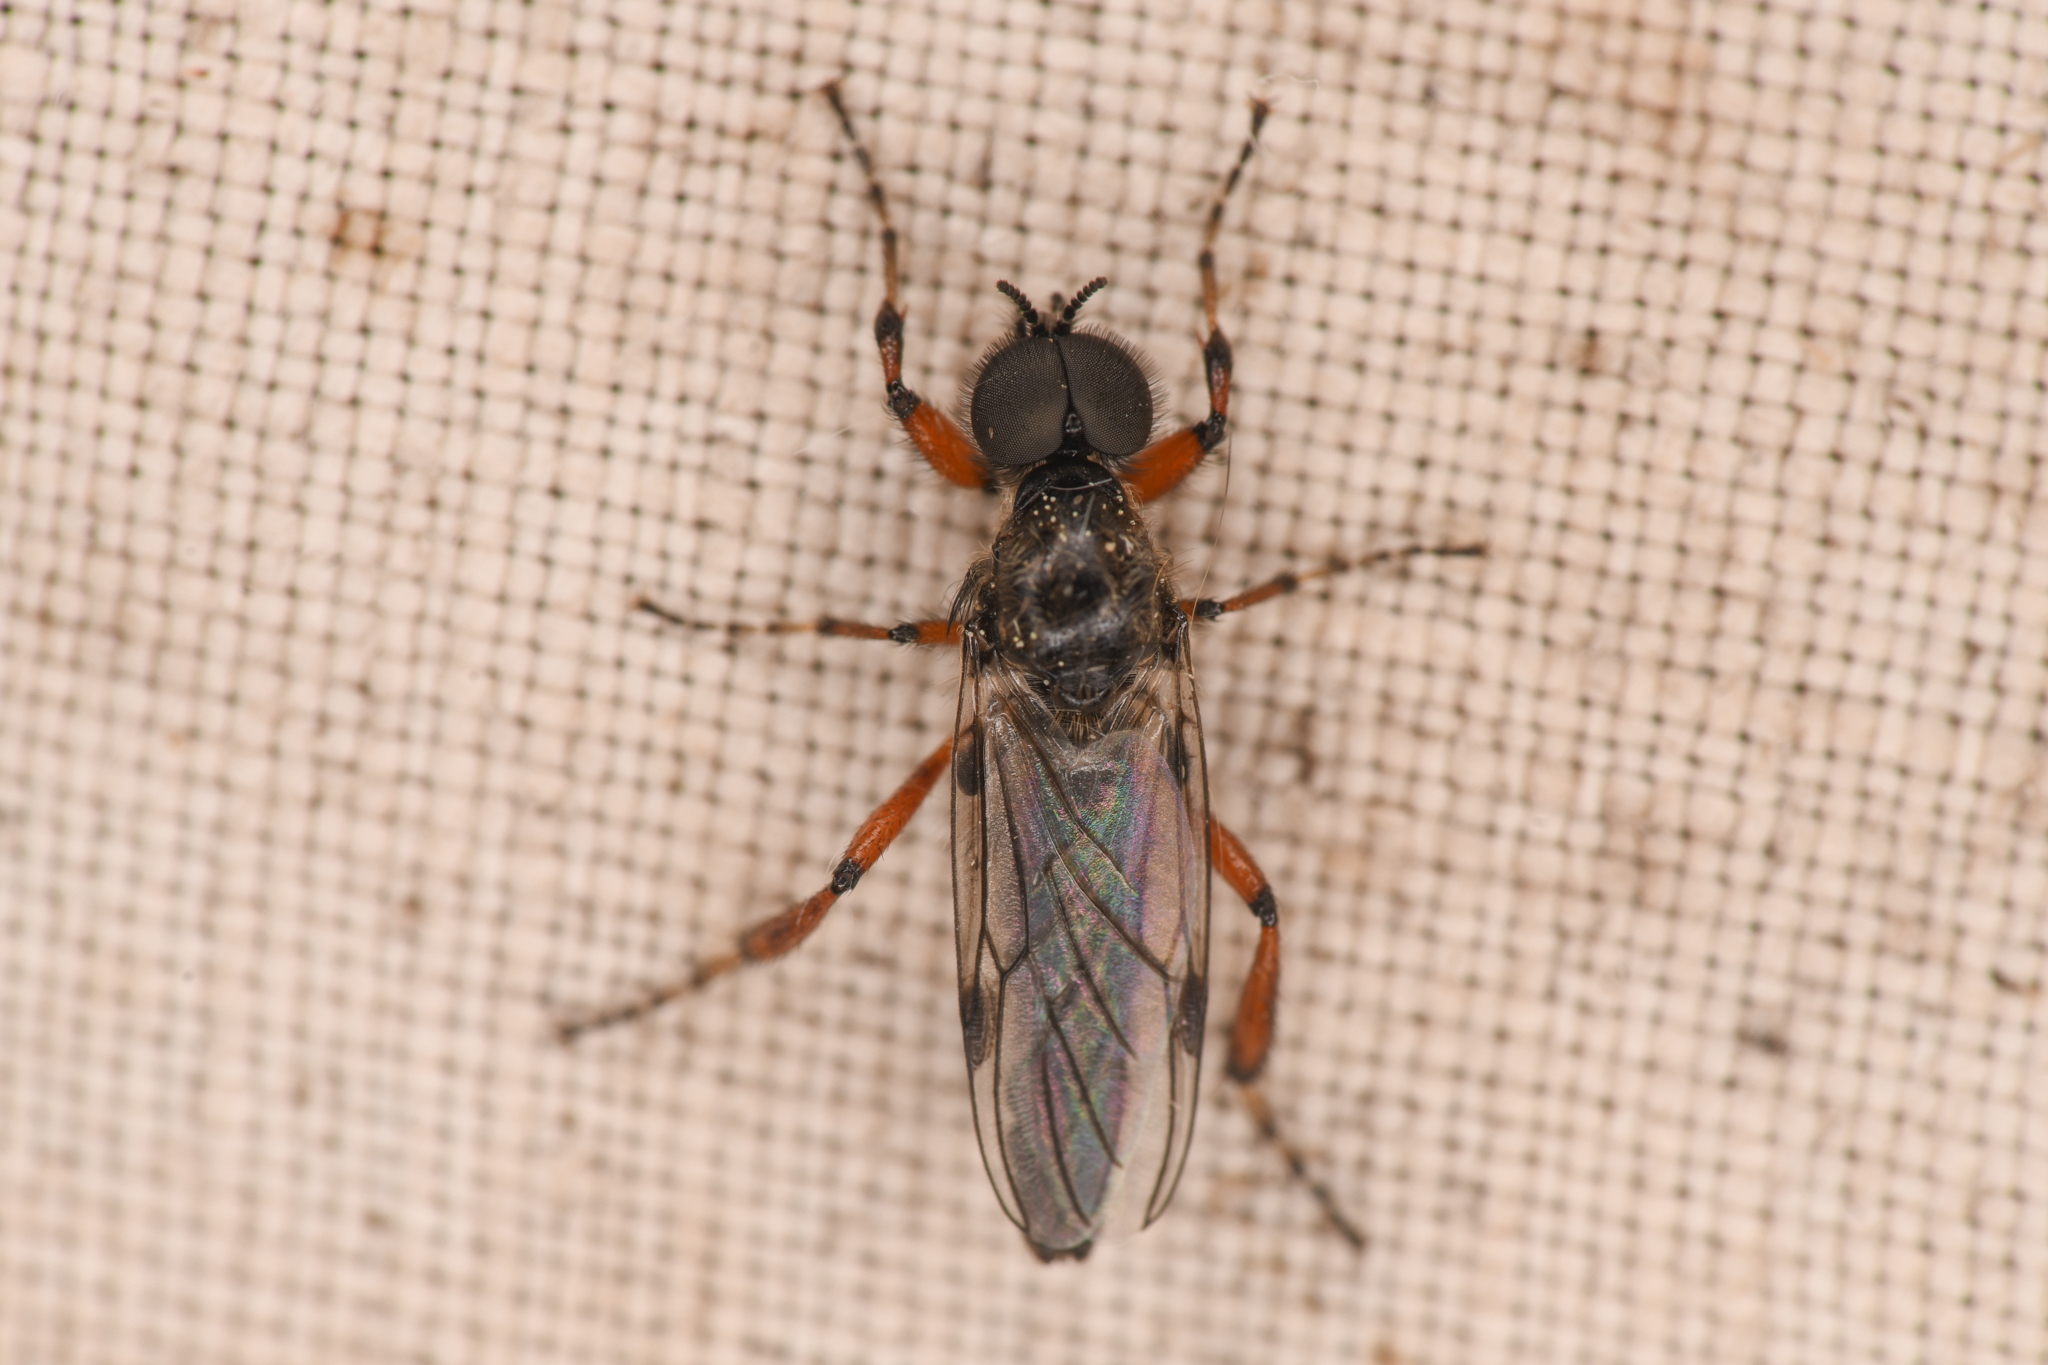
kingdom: Animalia
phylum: Arthropoda
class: Insecta
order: Diptera
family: Bibionidae
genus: Bibio
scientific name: Bibio xanthopus
